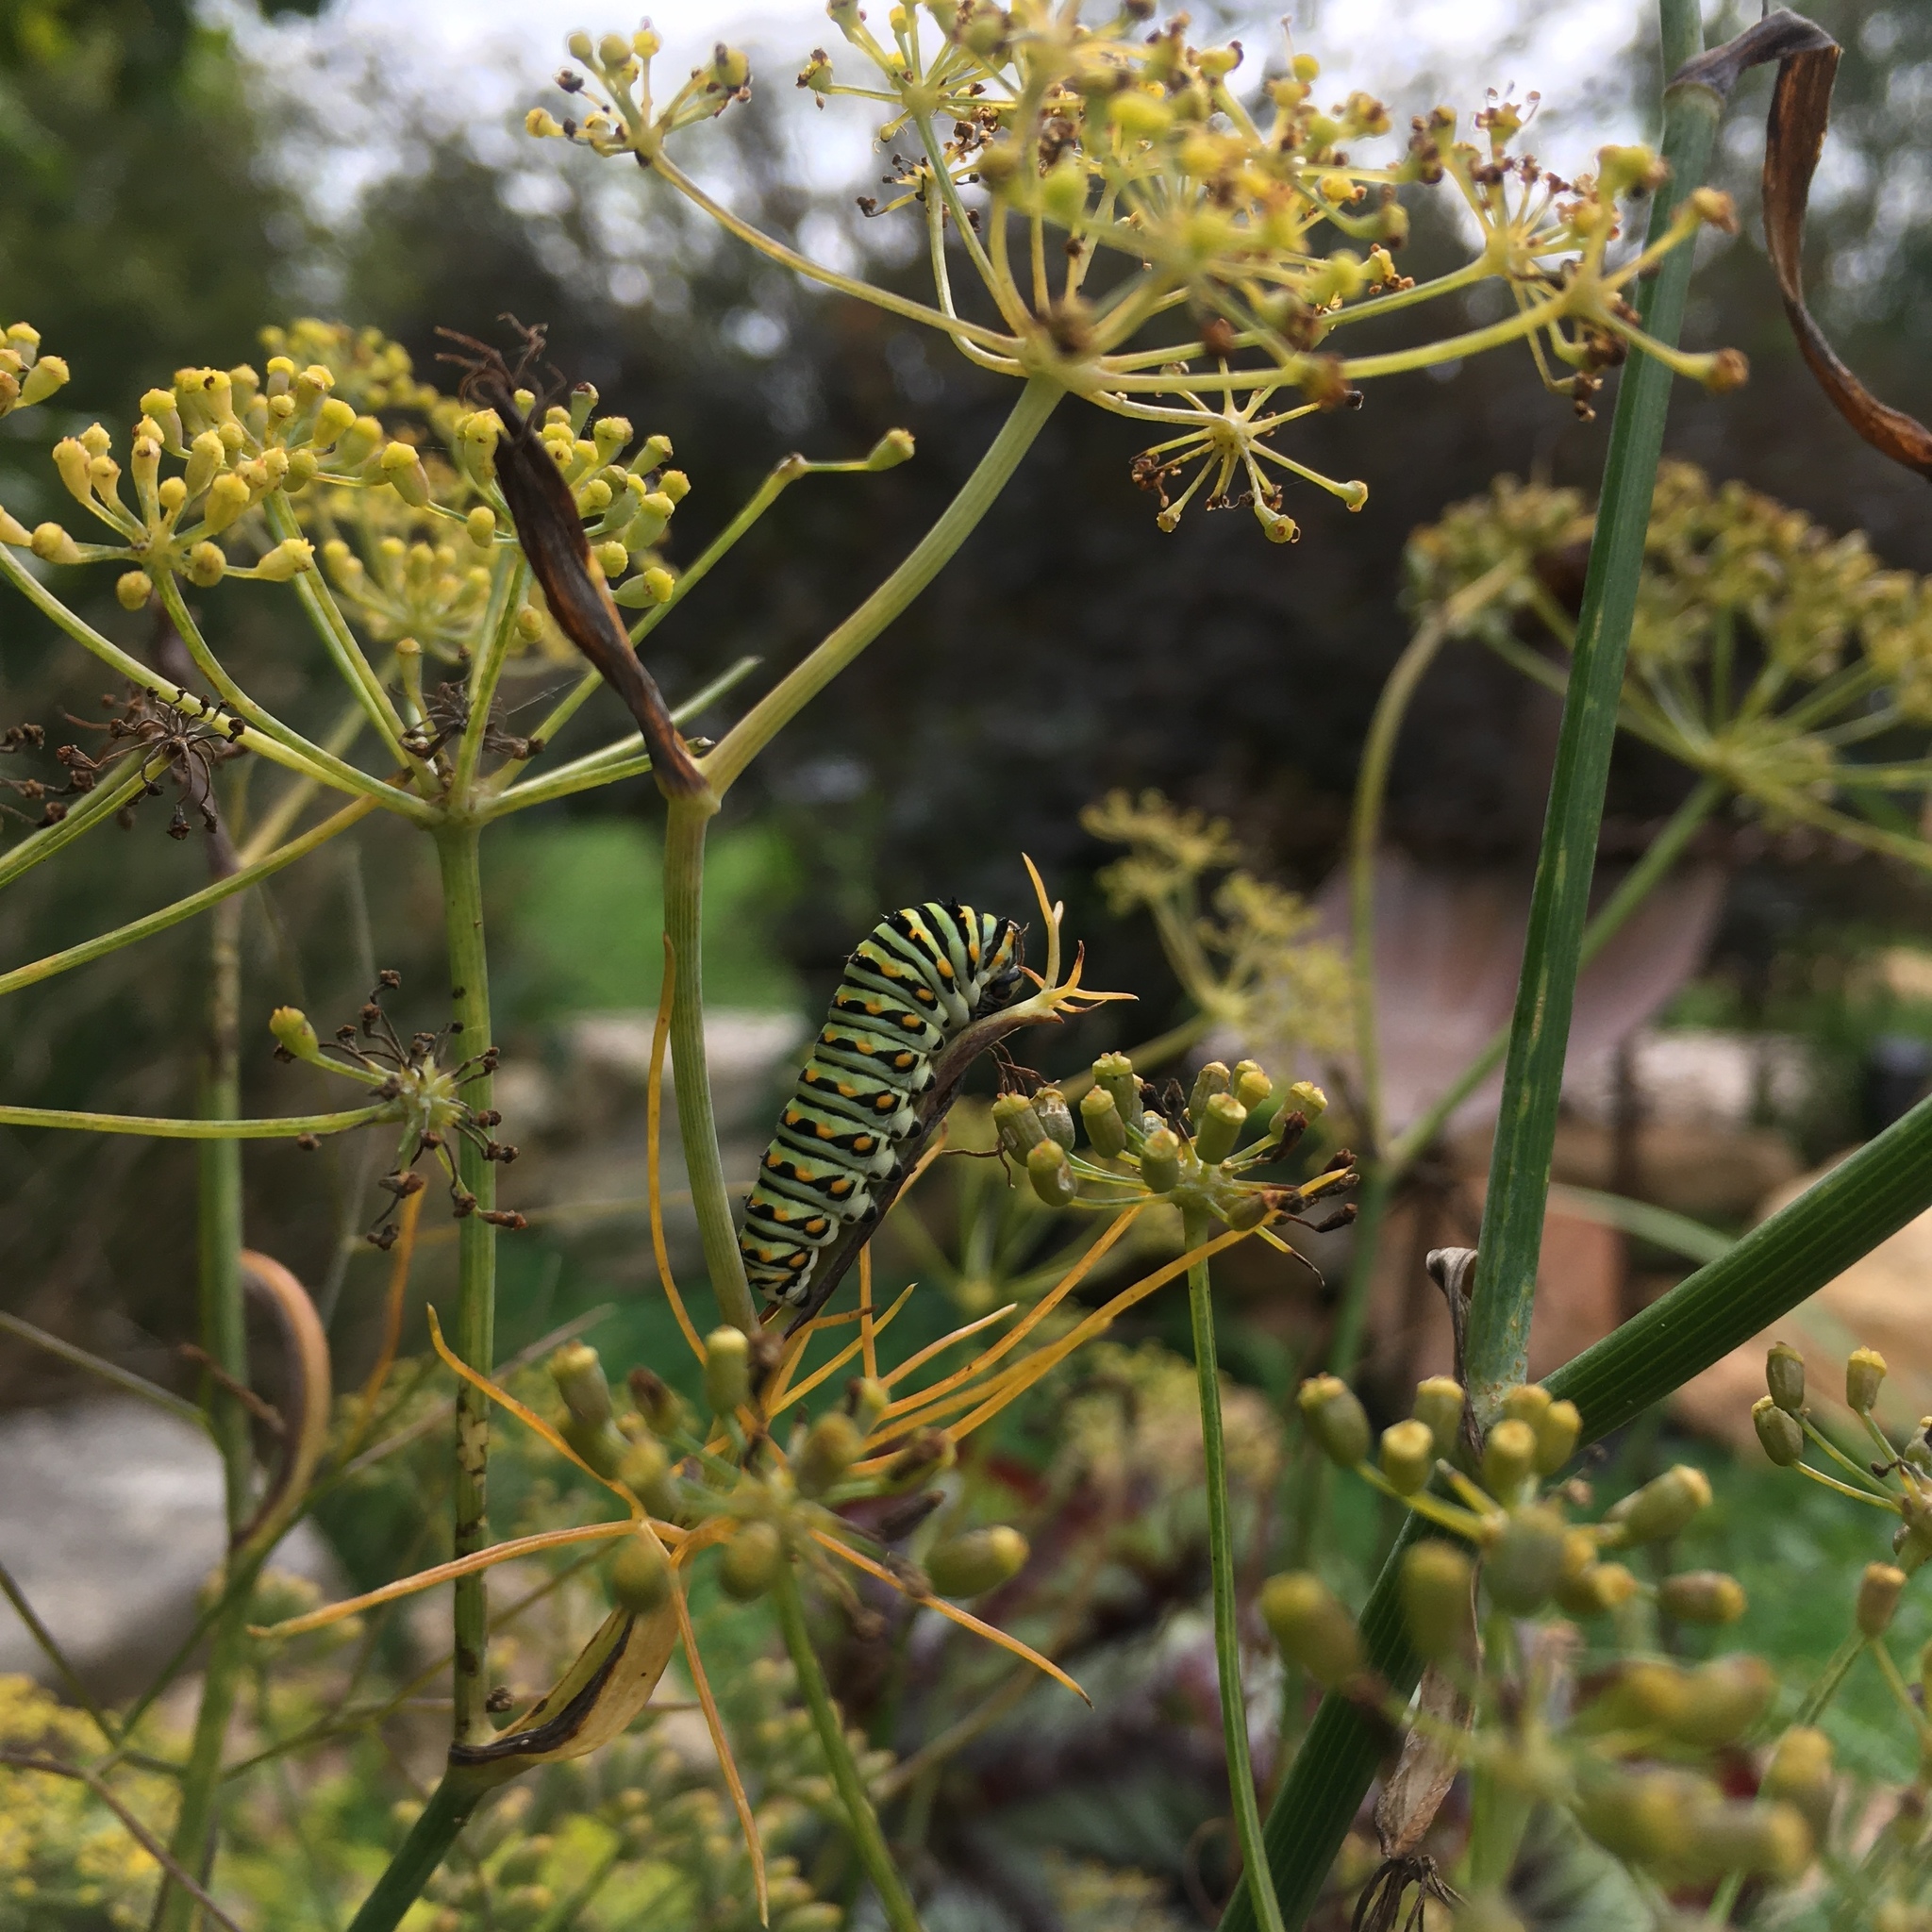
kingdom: Animalia
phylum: Arthropoda
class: Insecta
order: Lepidoptera
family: Papilionidae
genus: Papilio
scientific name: Papilio polyxenes
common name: Black swallowtail
